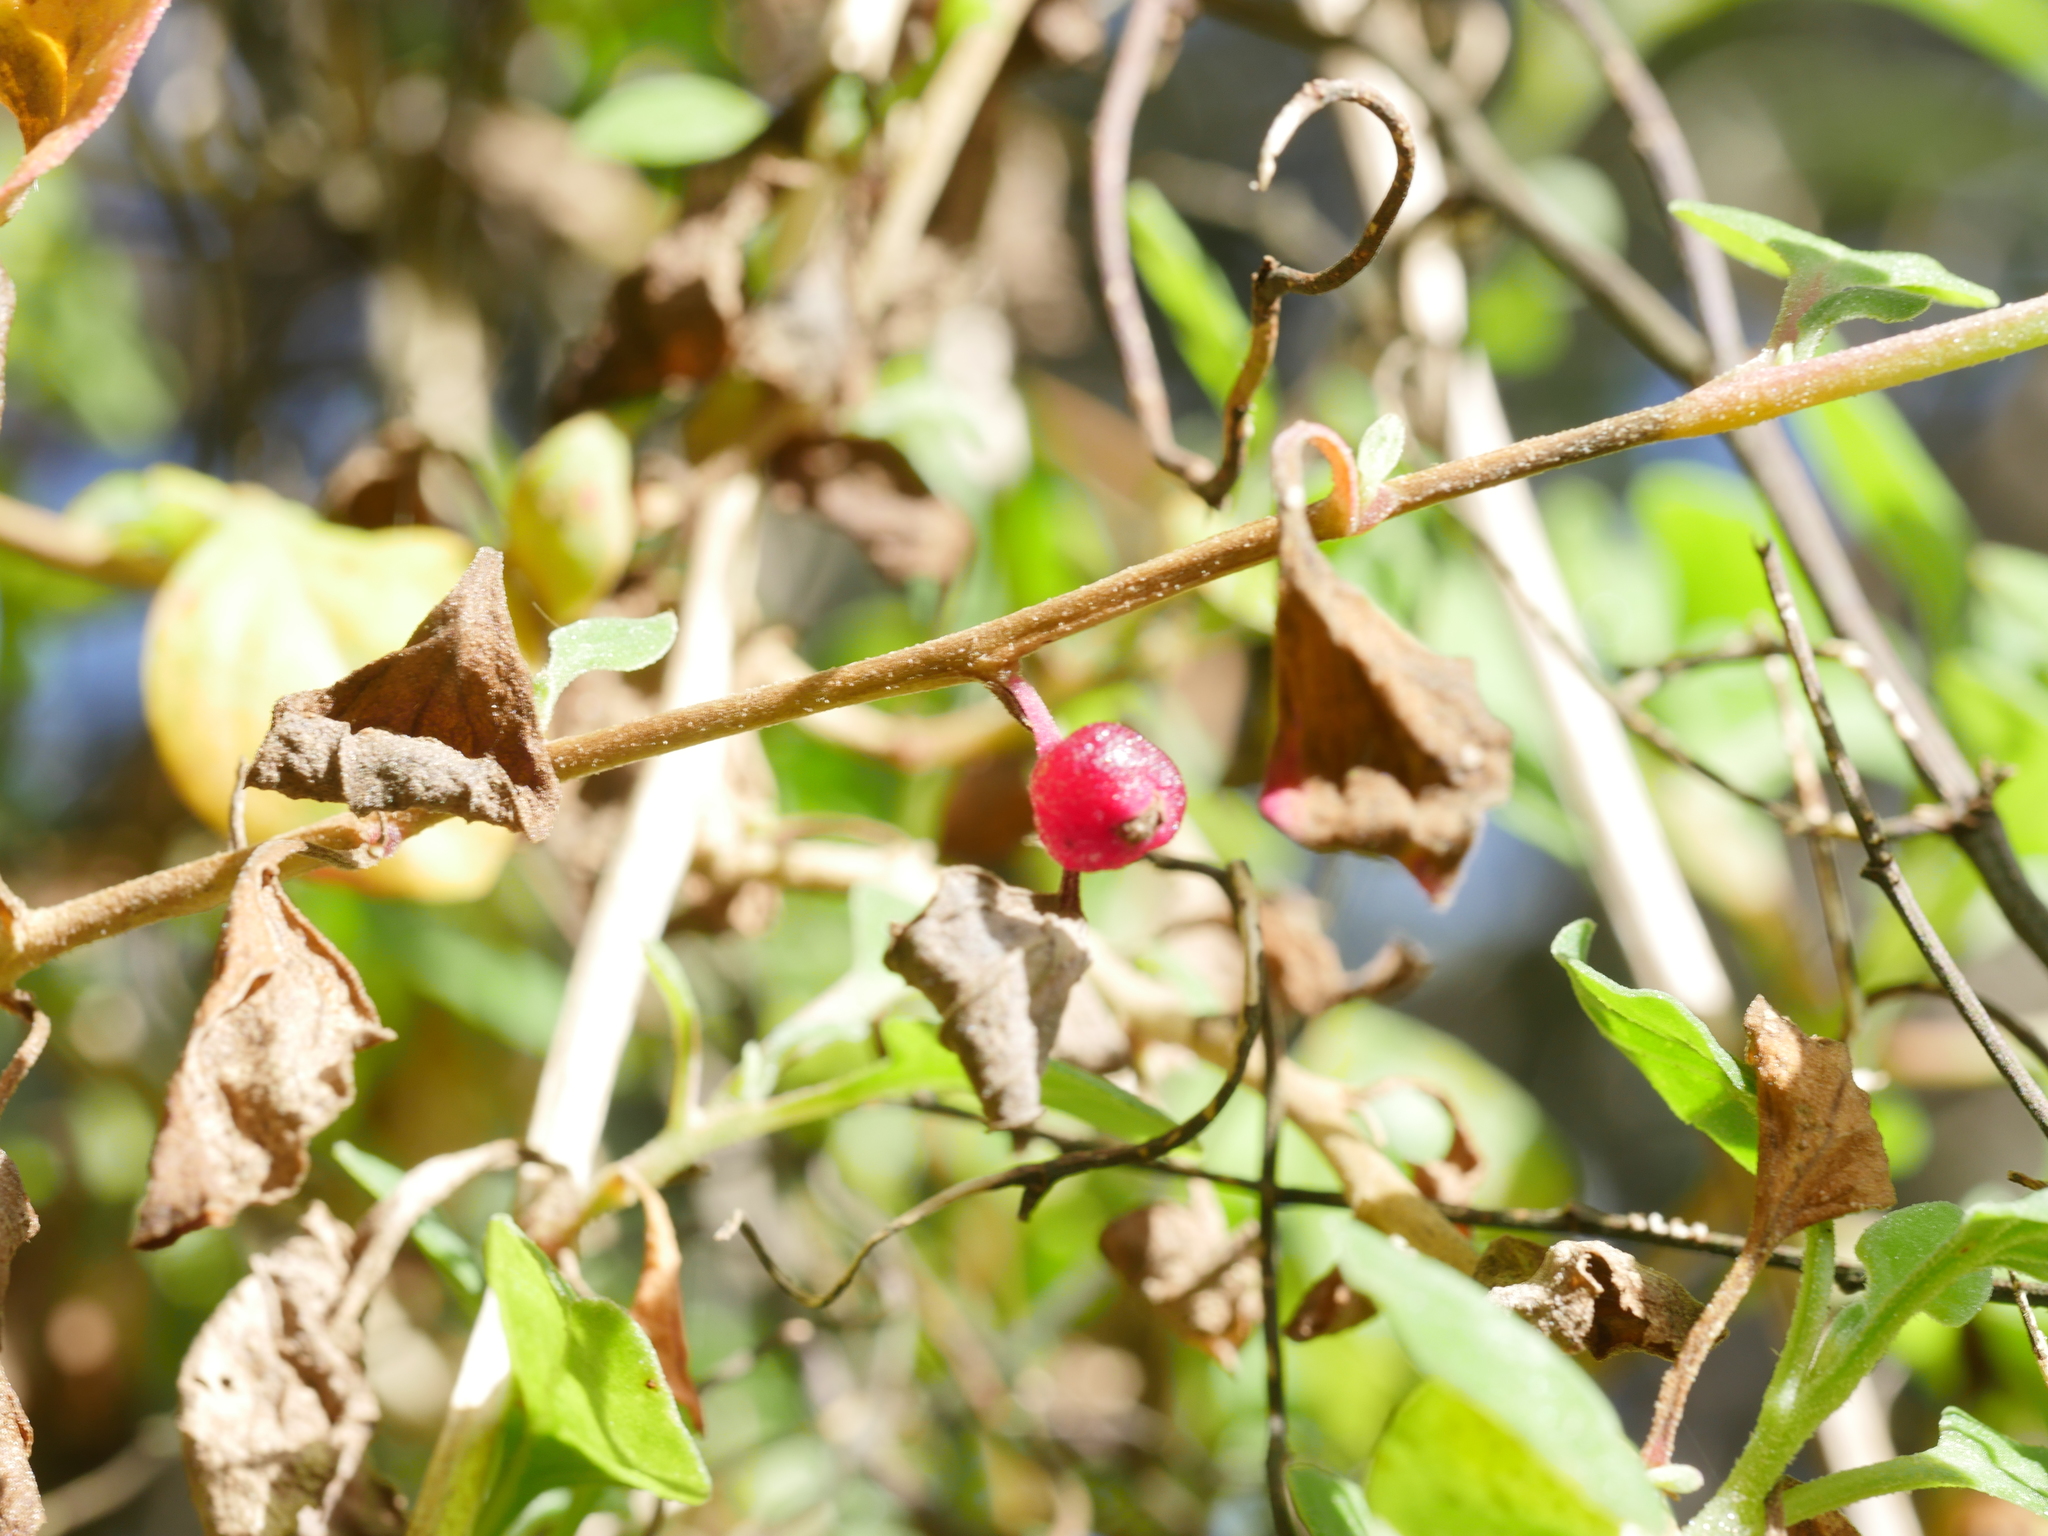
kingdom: Plantae
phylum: Tracheophyta
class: Magnoliopsida
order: Caryophyllales
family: Aizoaceae
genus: Tetragonia
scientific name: Tetragonia implexicoma
